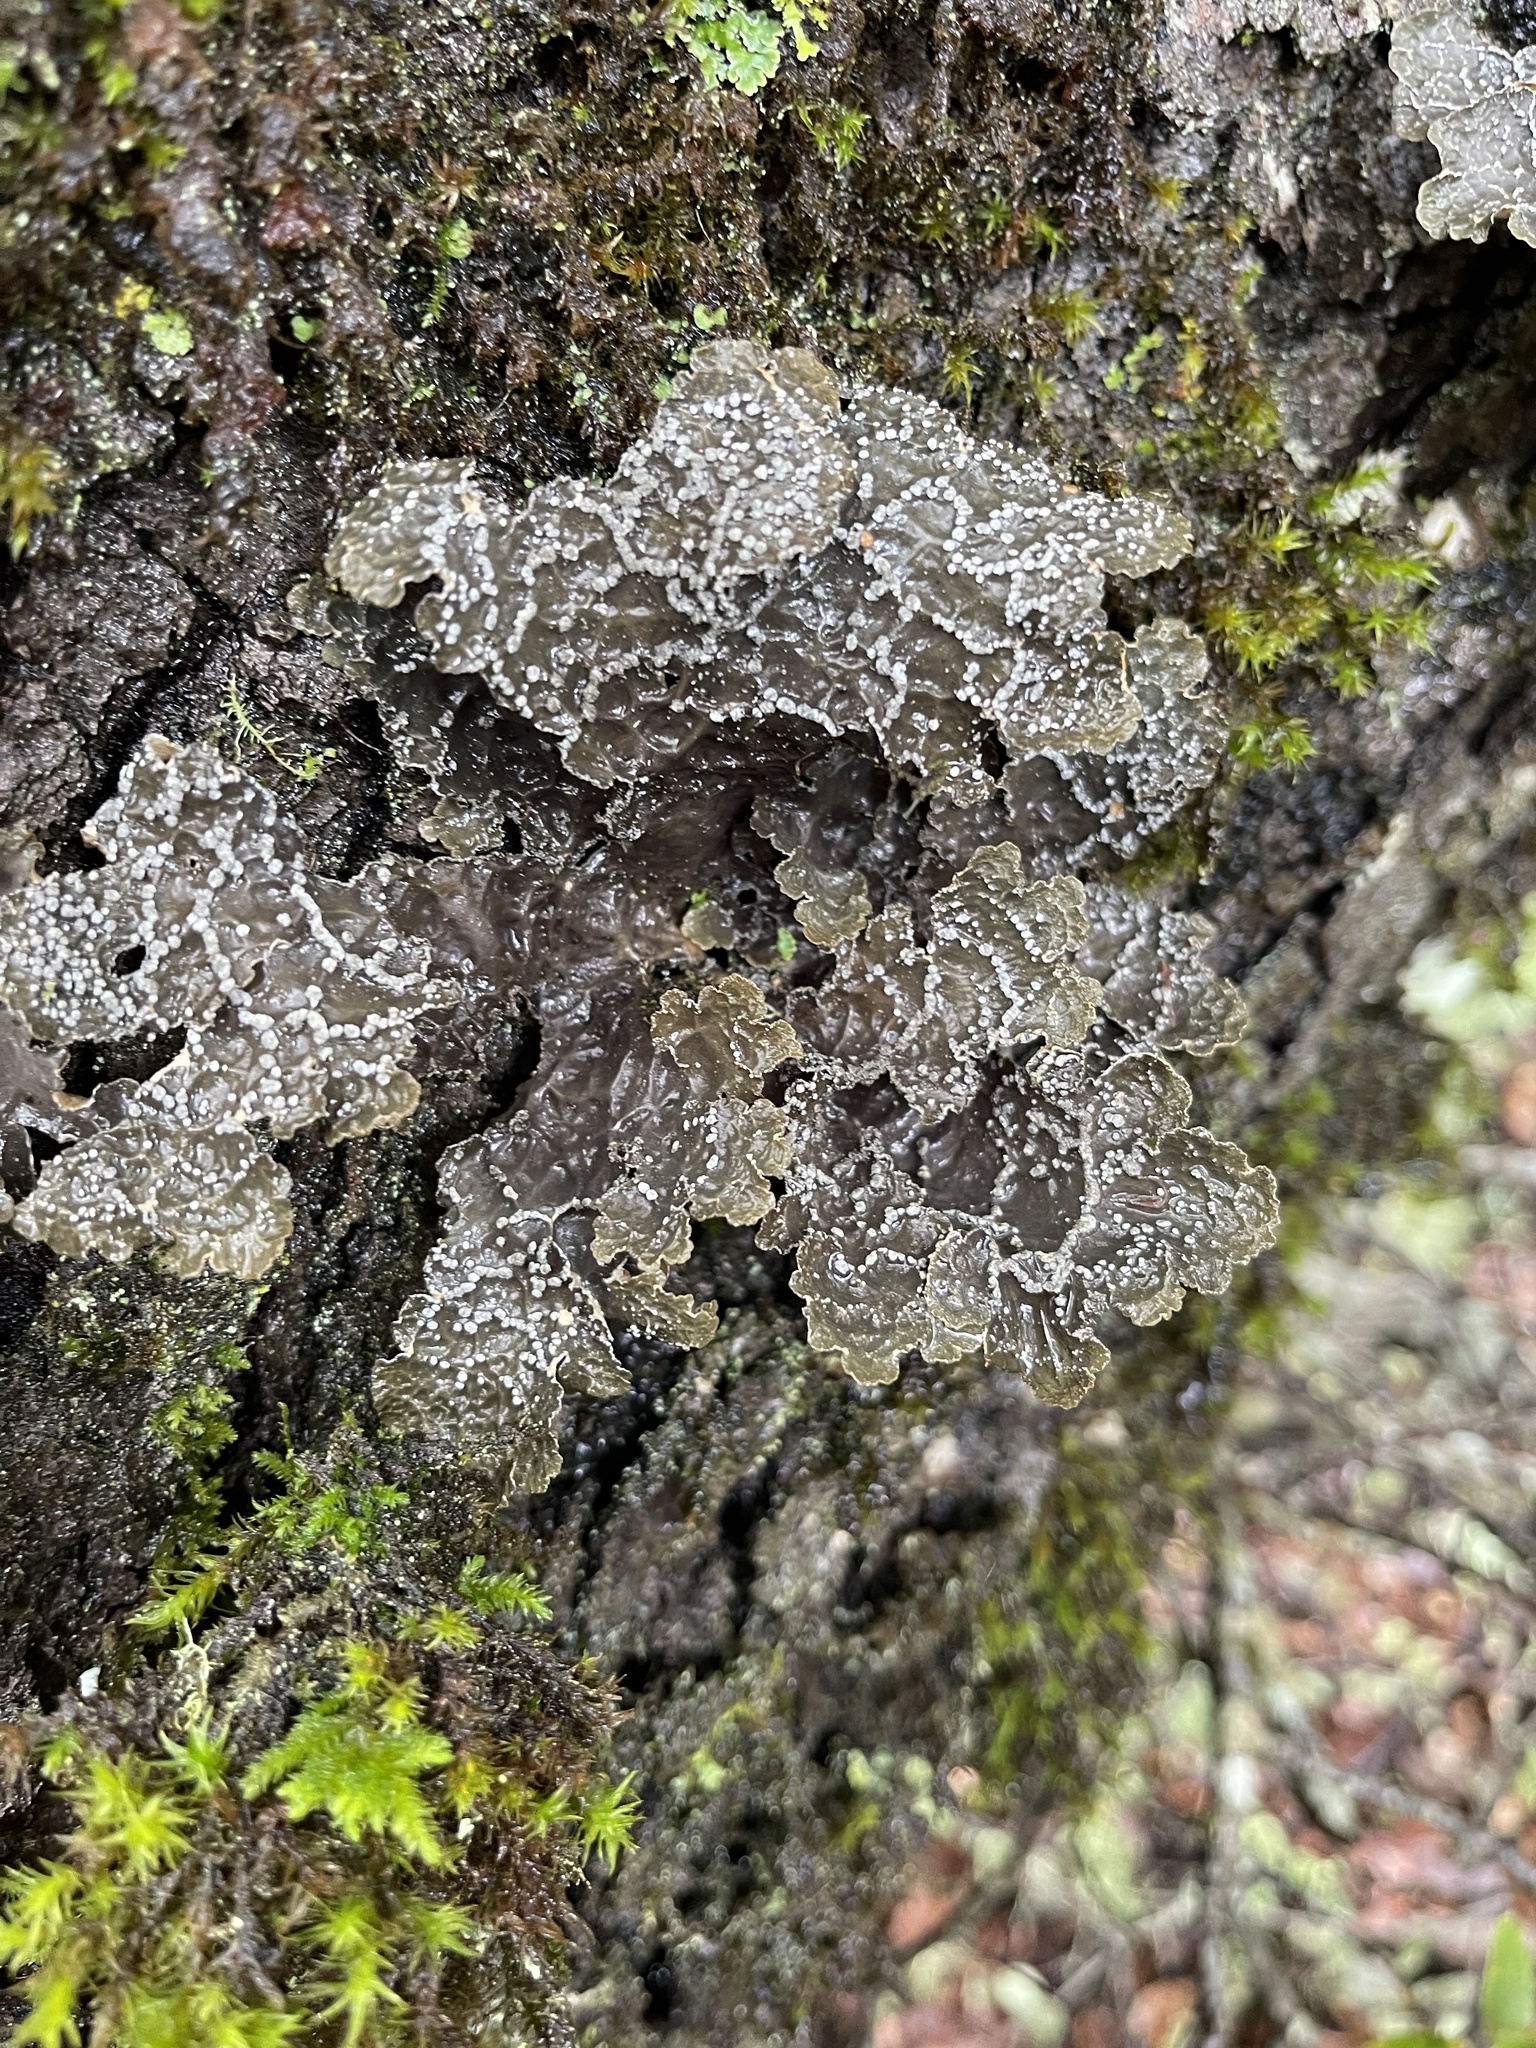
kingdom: Fungi
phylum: Ascomycota
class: Lecanoromycetes
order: Peltigerales
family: Lobariaceae
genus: Lobaria
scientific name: Lobaria anomala
